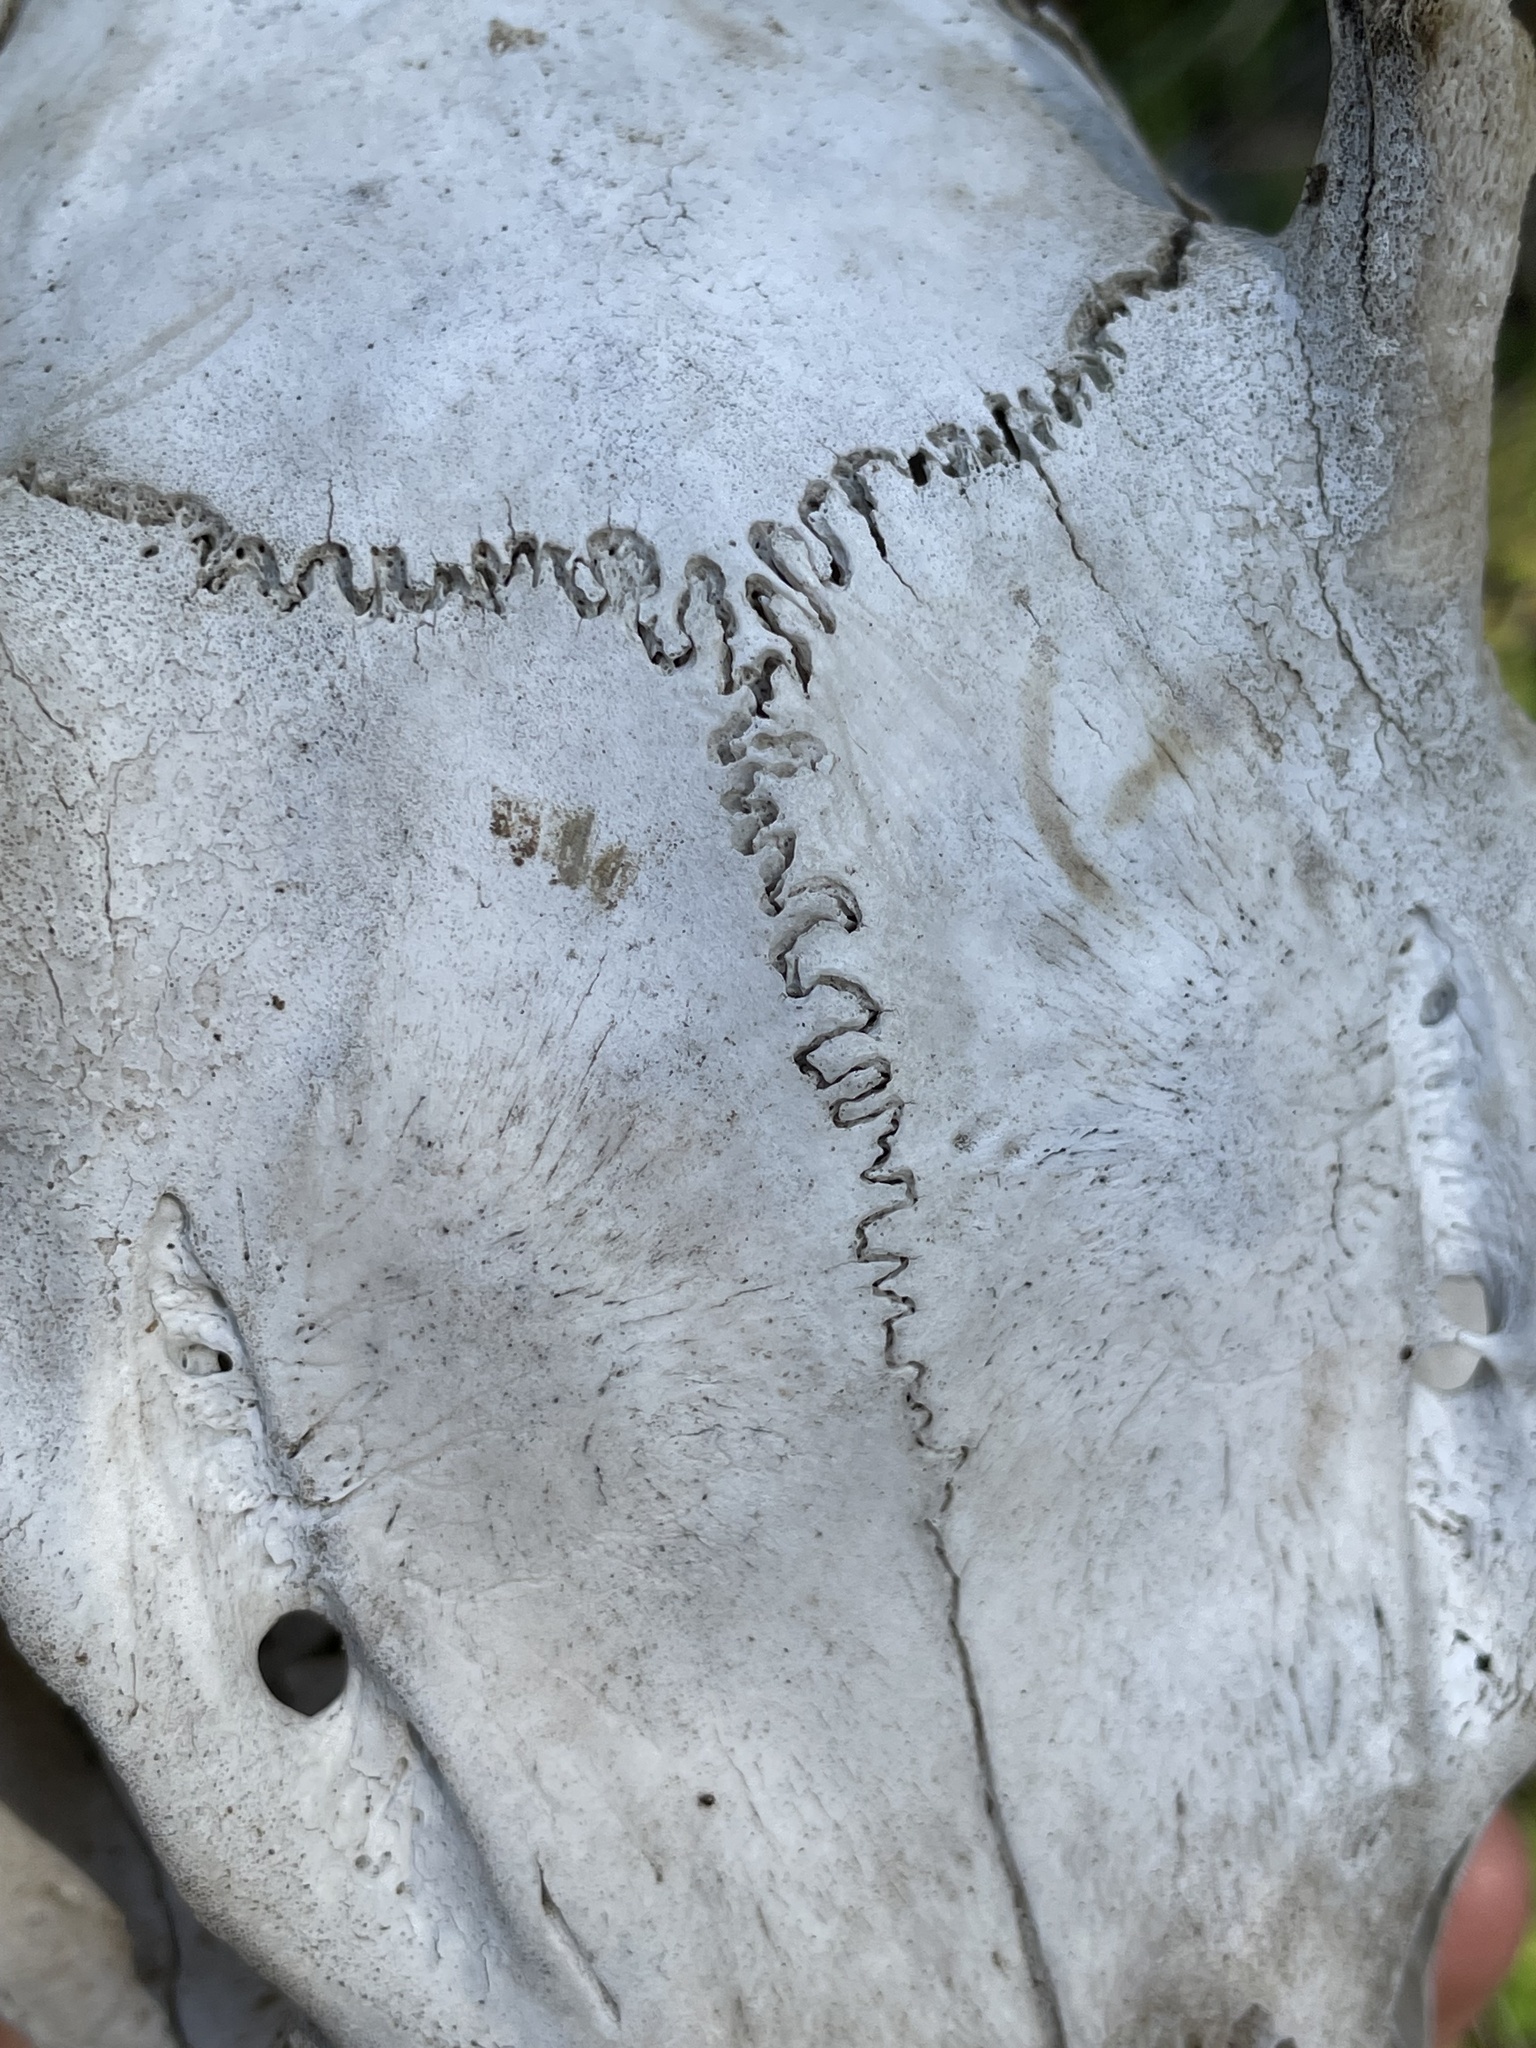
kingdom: Animalia
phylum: Chordata
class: Mammalia
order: Artiodactyla
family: Cervidae
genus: Odocoileus
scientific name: Odocoileus hemionus
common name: Mule deer
